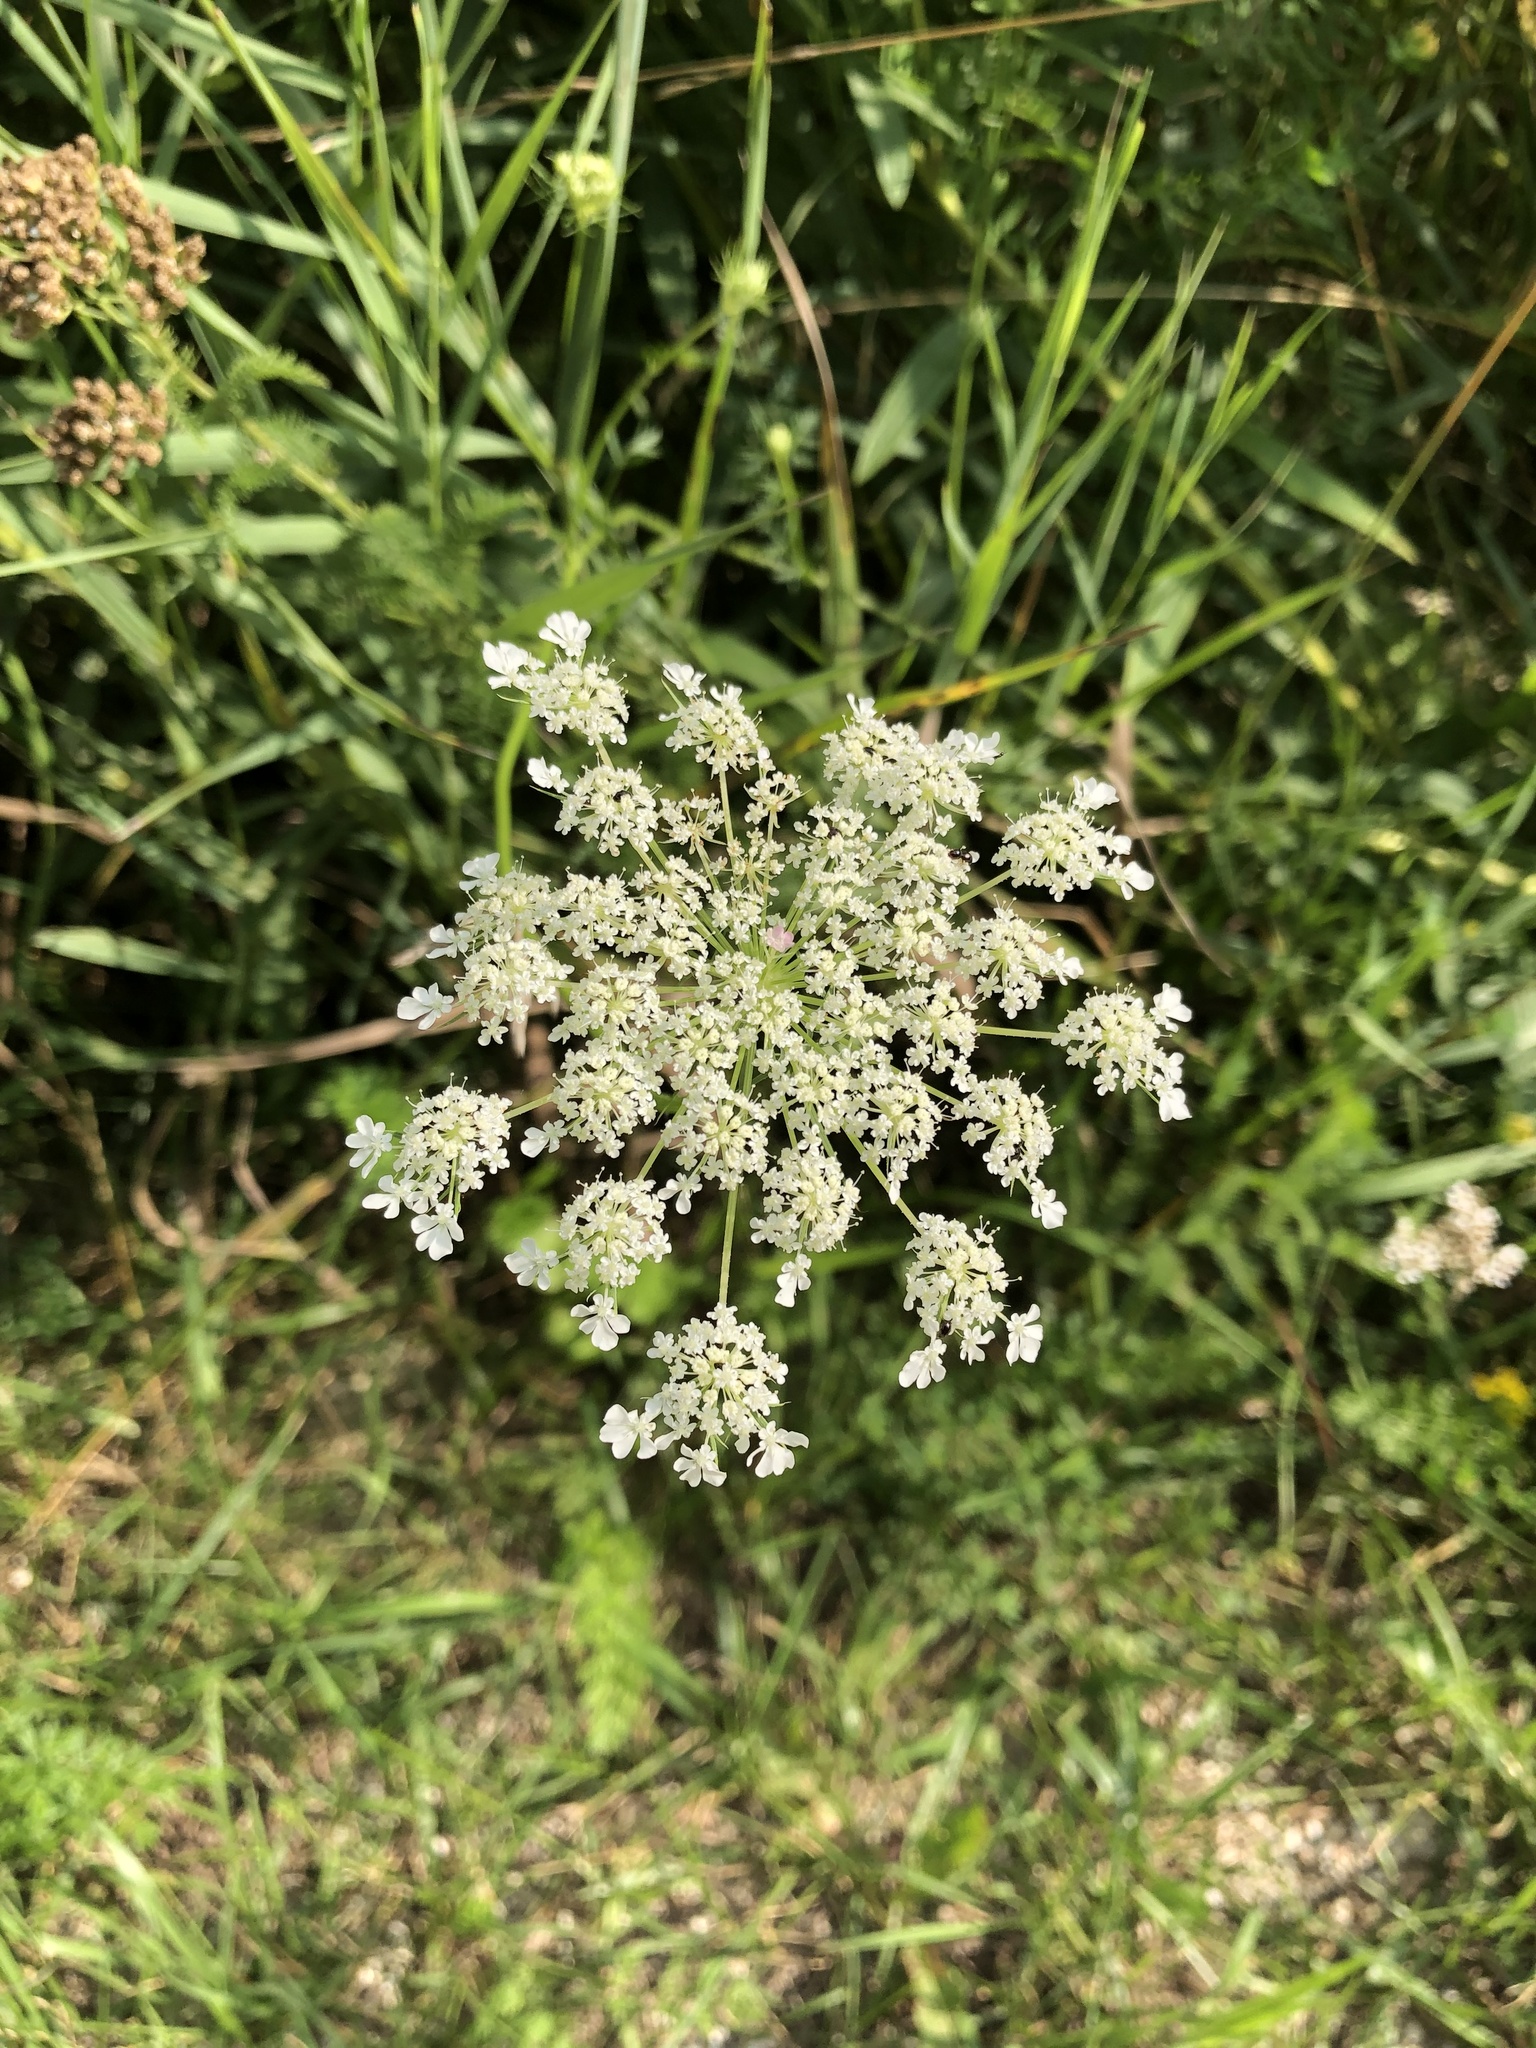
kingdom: Plantae
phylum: Tracheophyta
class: Magnoliopsida
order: Apiales
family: Apiaceae
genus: Daucus
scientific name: Daucus carota
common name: Wild carrot
